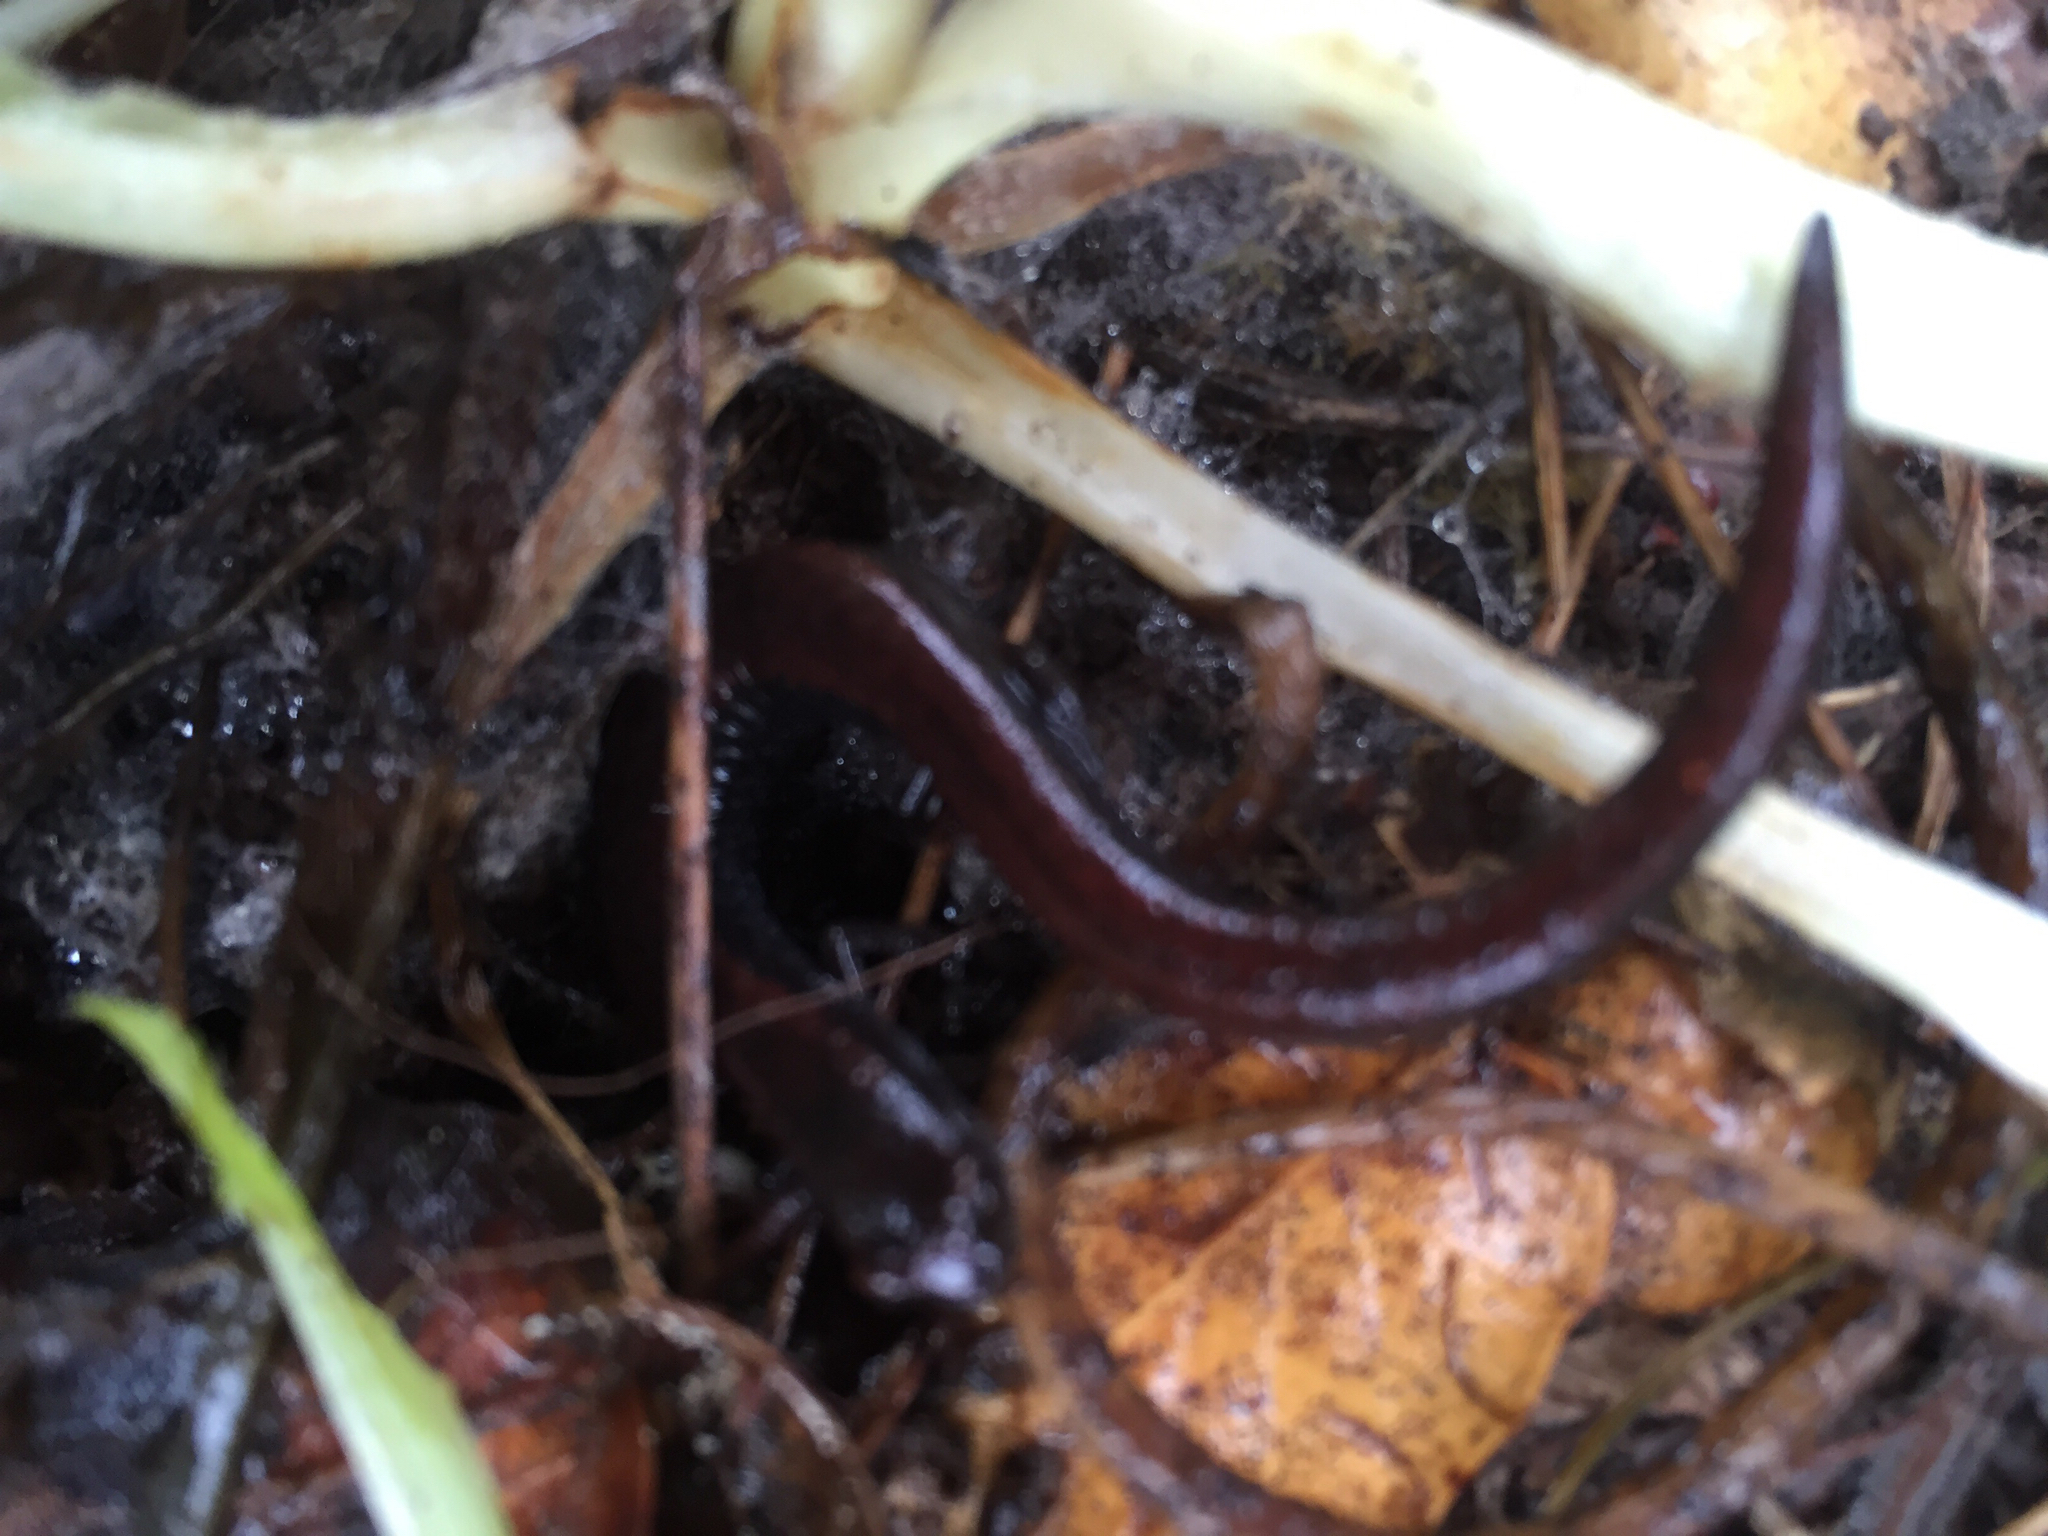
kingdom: Animalia
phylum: Chordata
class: Amphibia
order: Caudata
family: Plethodontidae
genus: Batrachoseps
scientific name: Batrachoseps attenuatus
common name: California slender salamander
